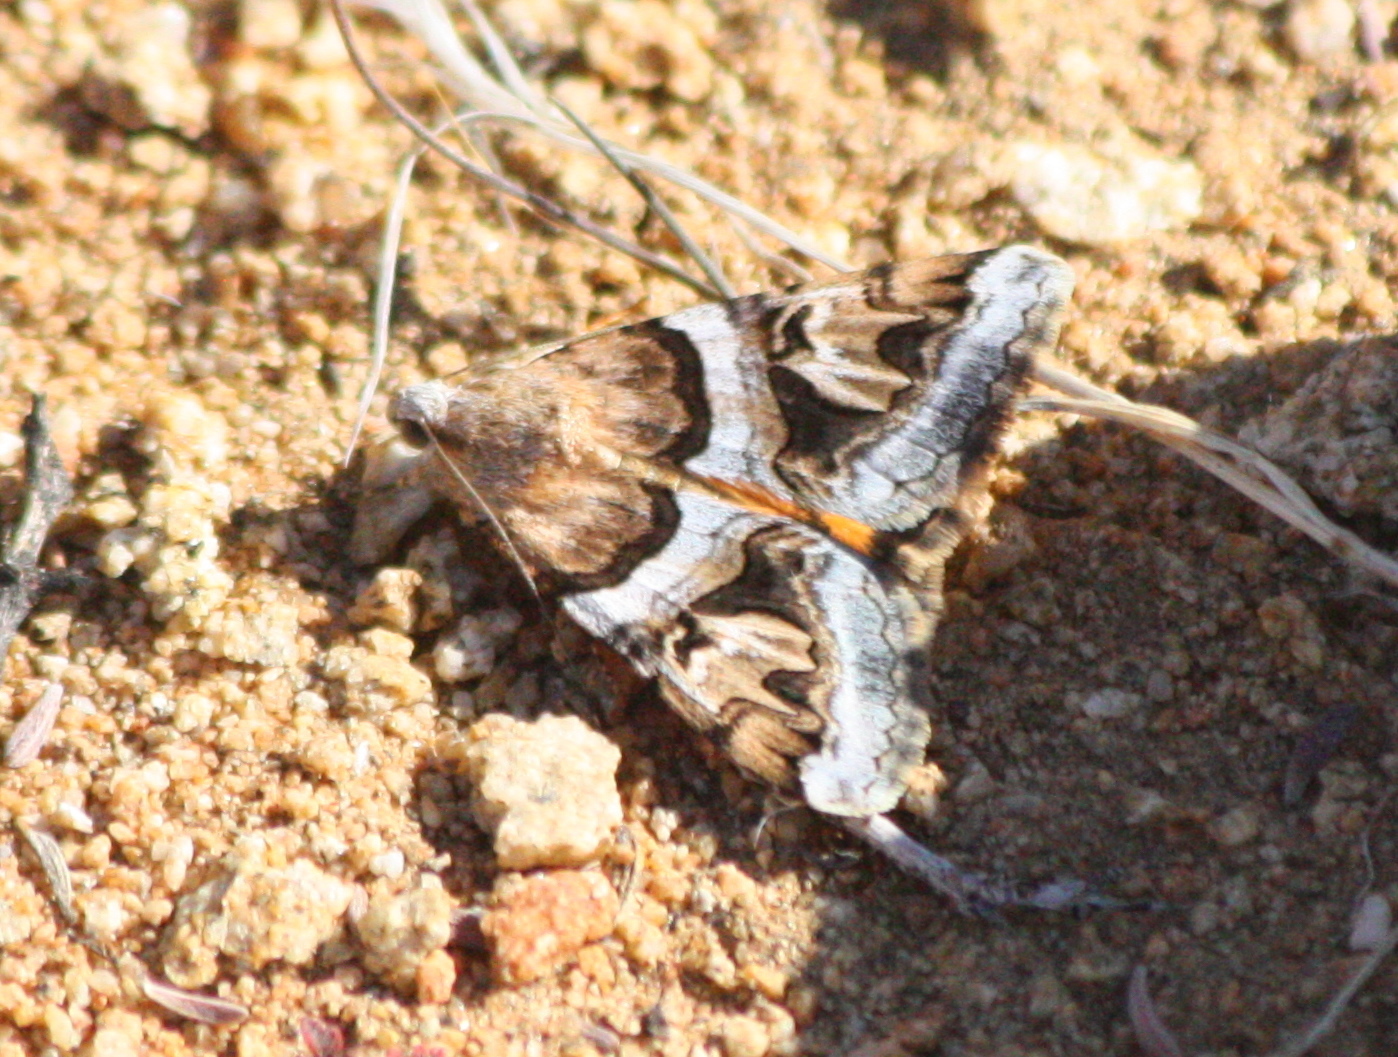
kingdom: Animalia
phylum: Arthropoda
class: Insecta
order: Lepidoptera
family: Erebidae
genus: Drasteria
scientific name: Drasteria howlandii
